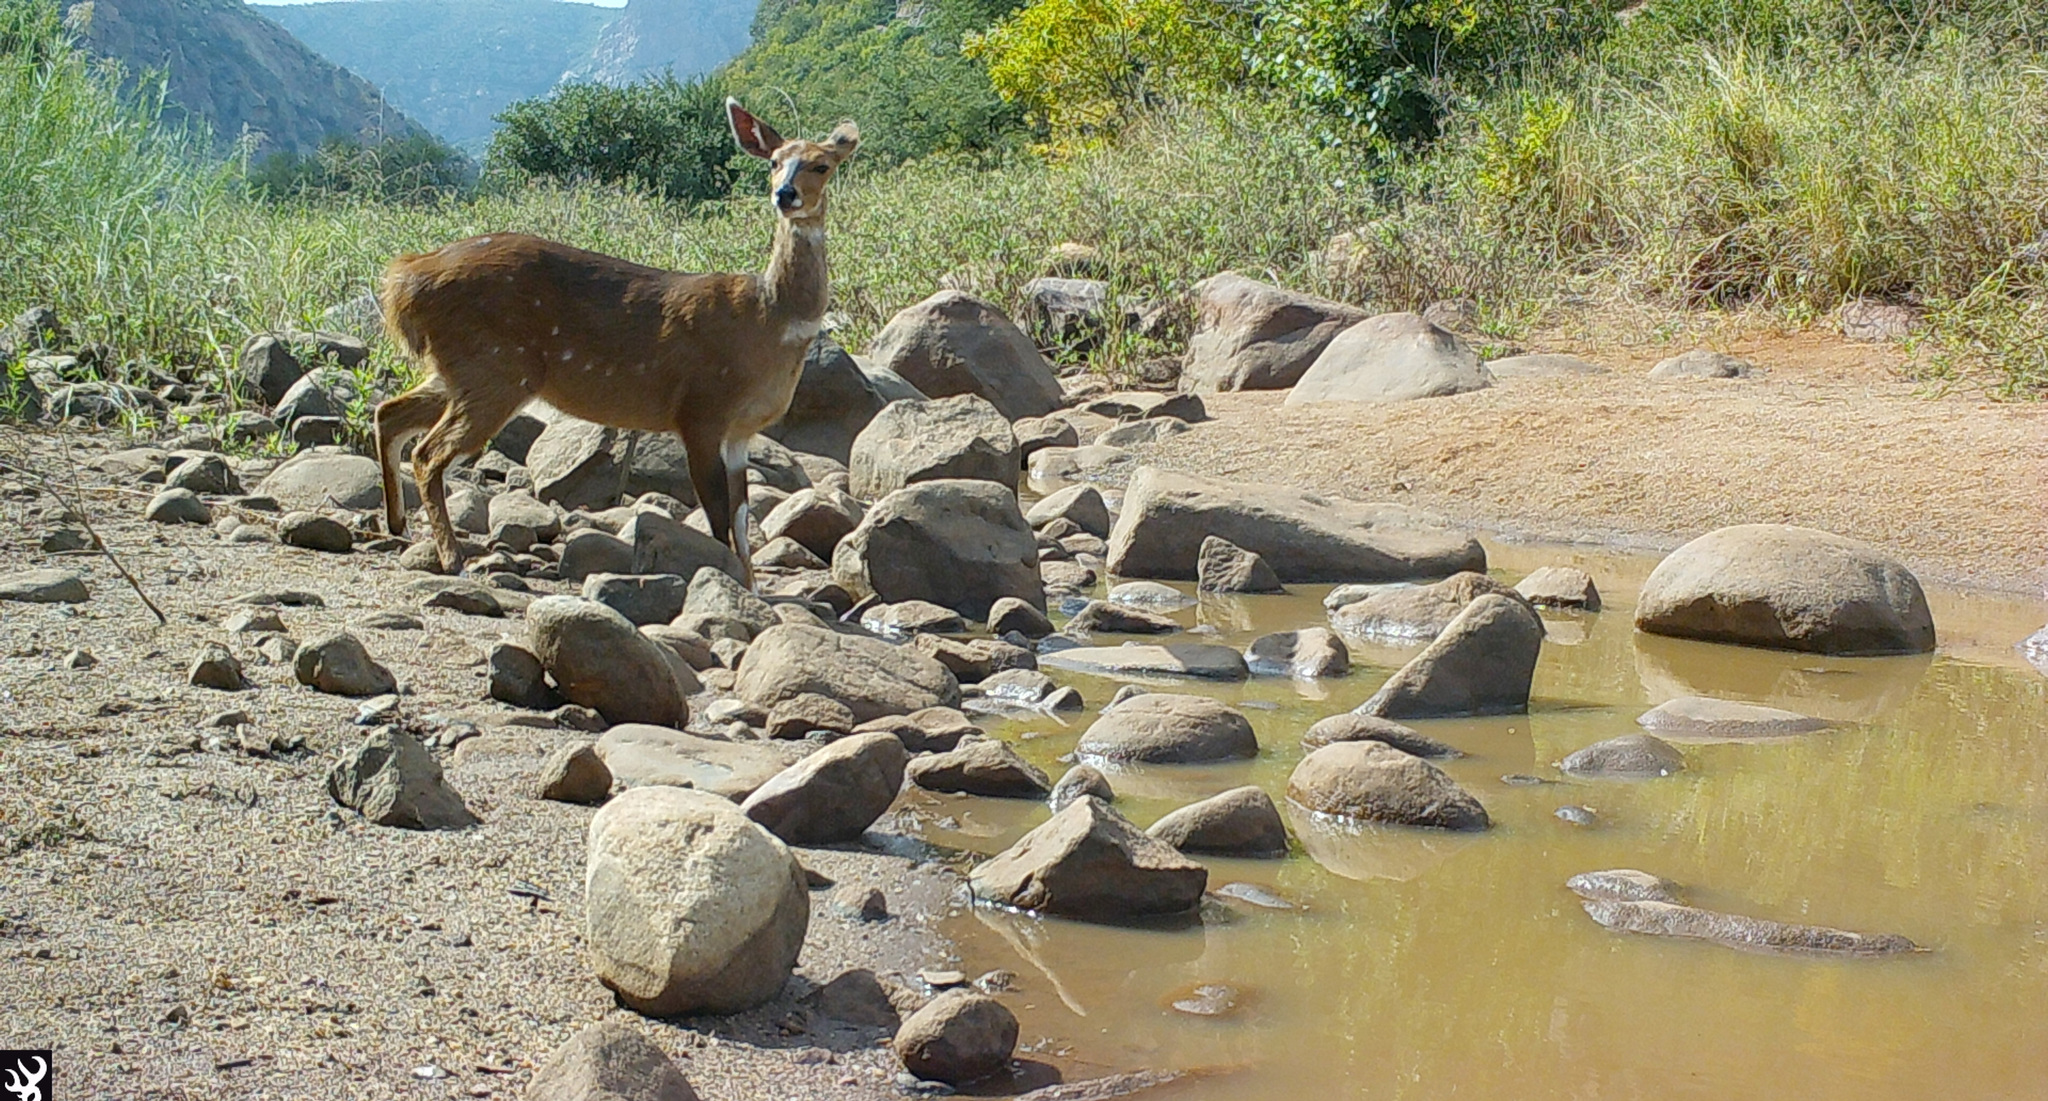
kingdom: Animalia
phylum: Chordata
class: Mammalia
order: Artiodactyla
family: Bovidae
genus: Tragelaphus
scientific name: Tragelaphus scriptus
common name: Bushbuck
